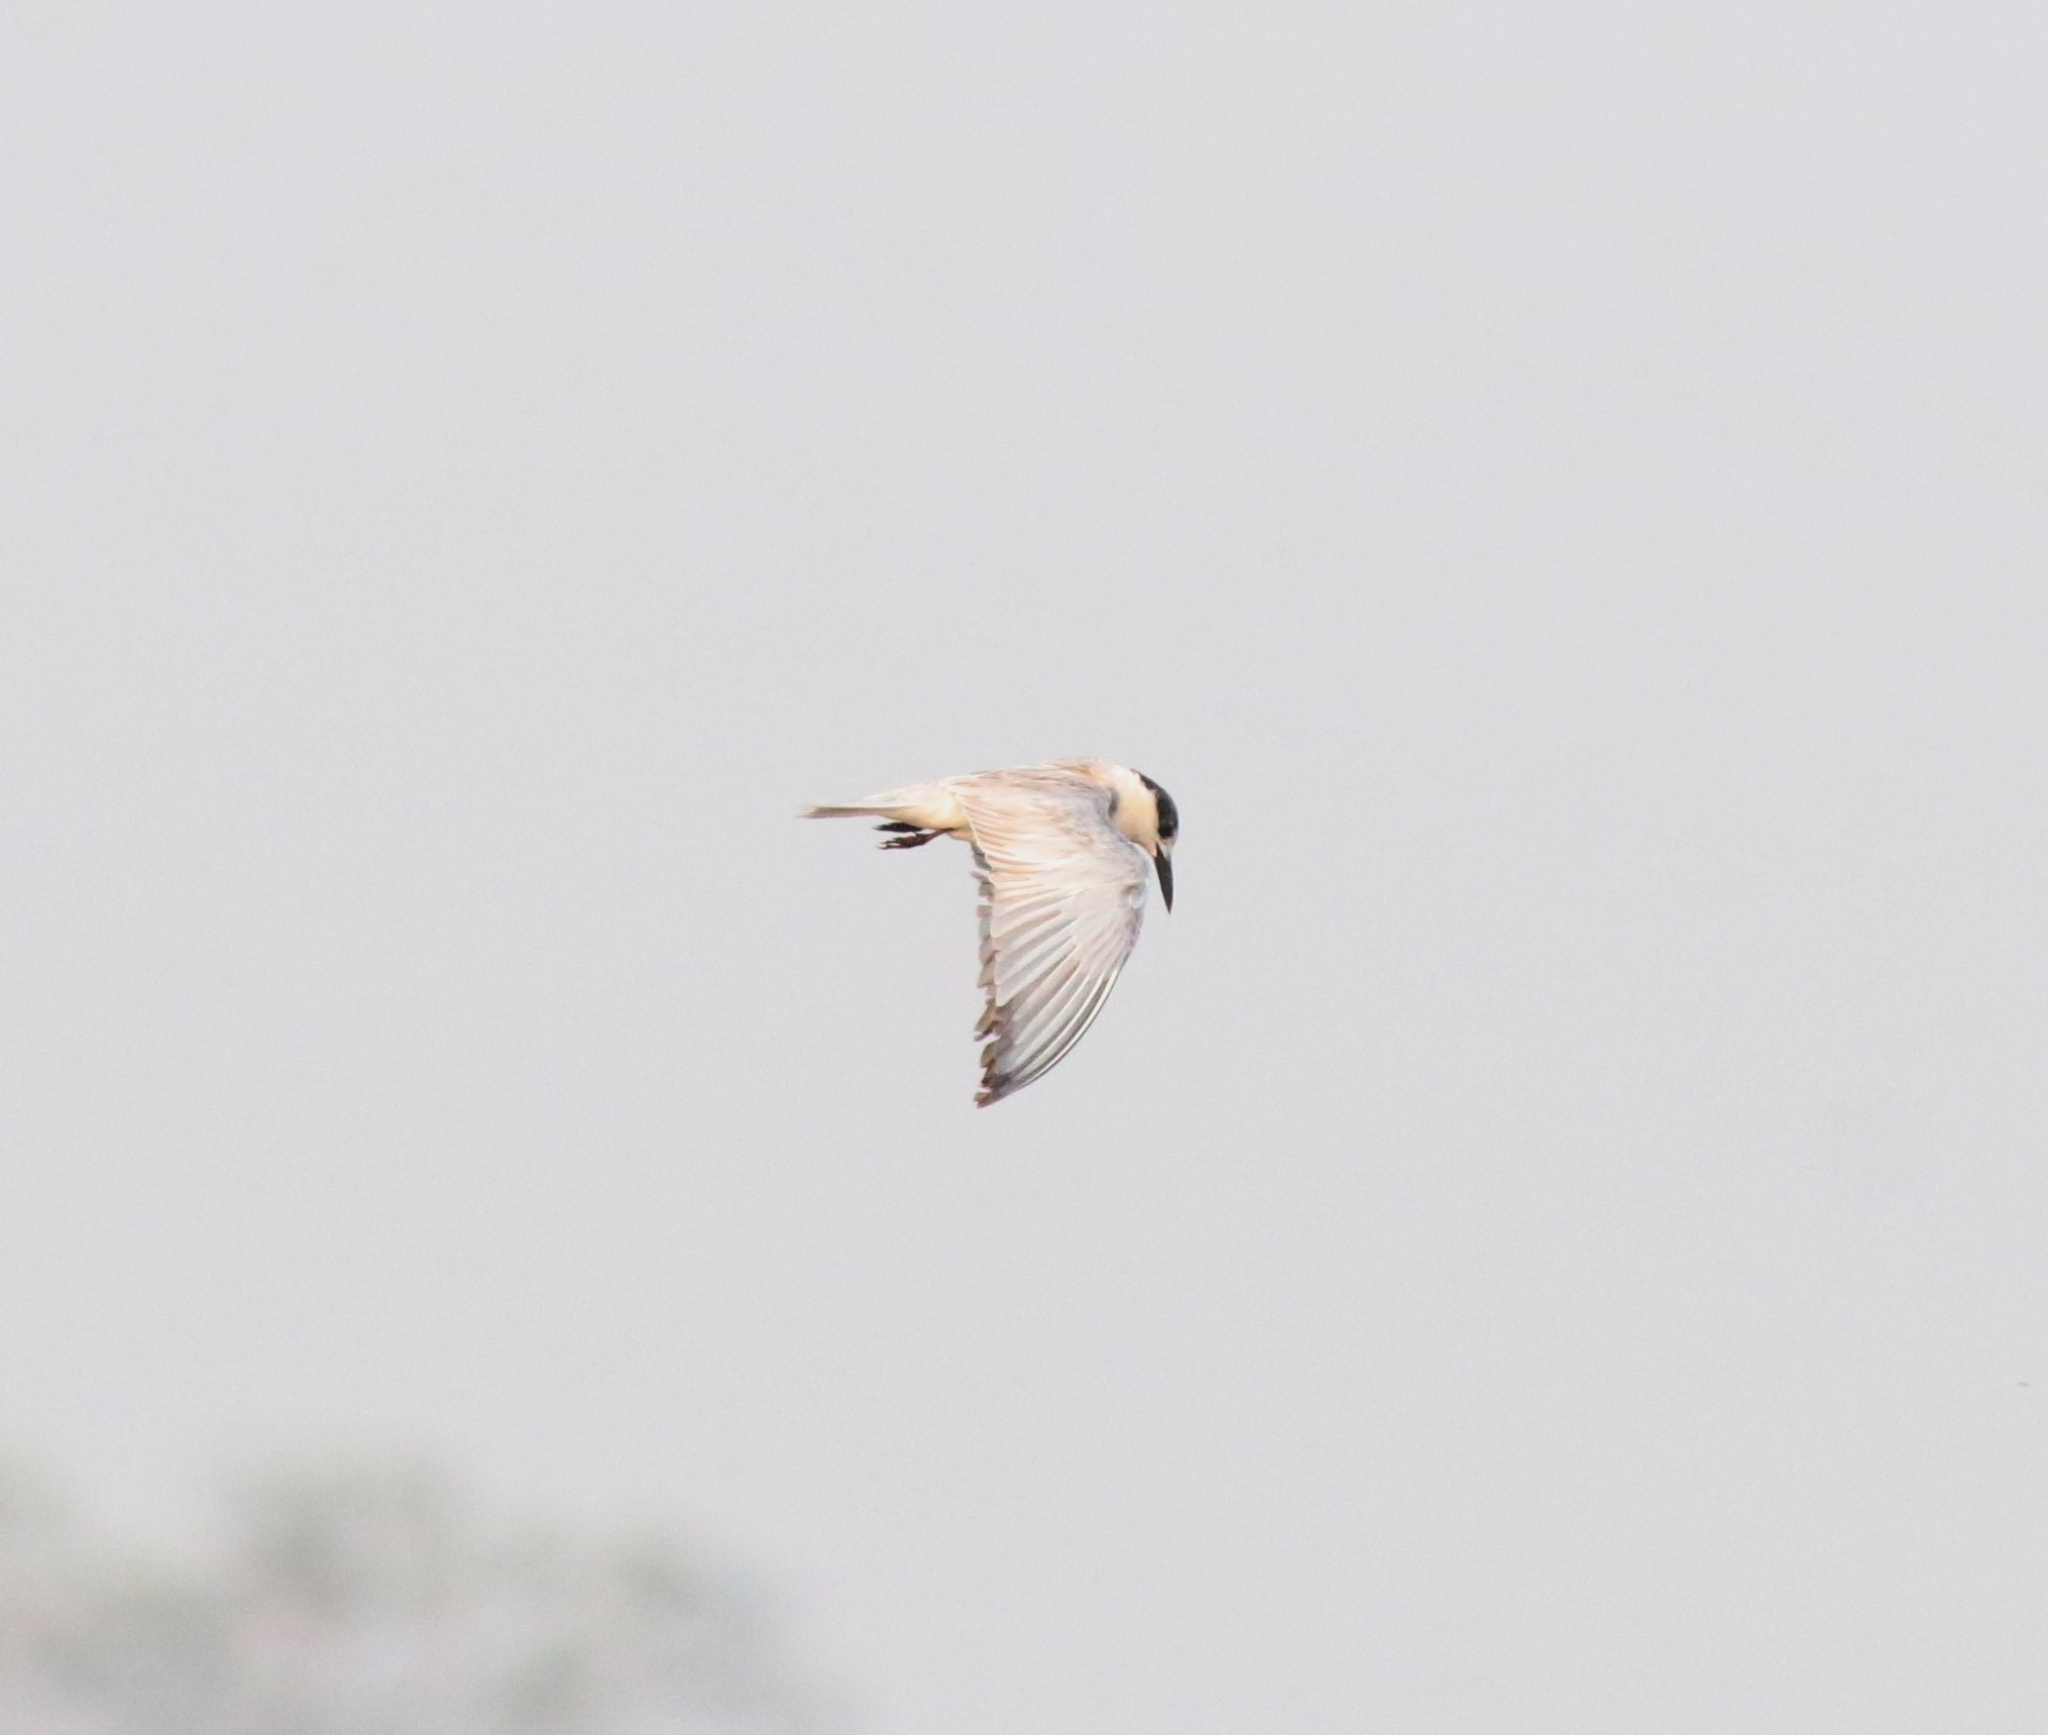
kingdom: Animalia
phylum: Chordata
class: Aves
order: Charadriiformes
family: Laridae
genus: Chlidonias
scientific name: Chlidonias hybrida
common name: Whiskered tern
